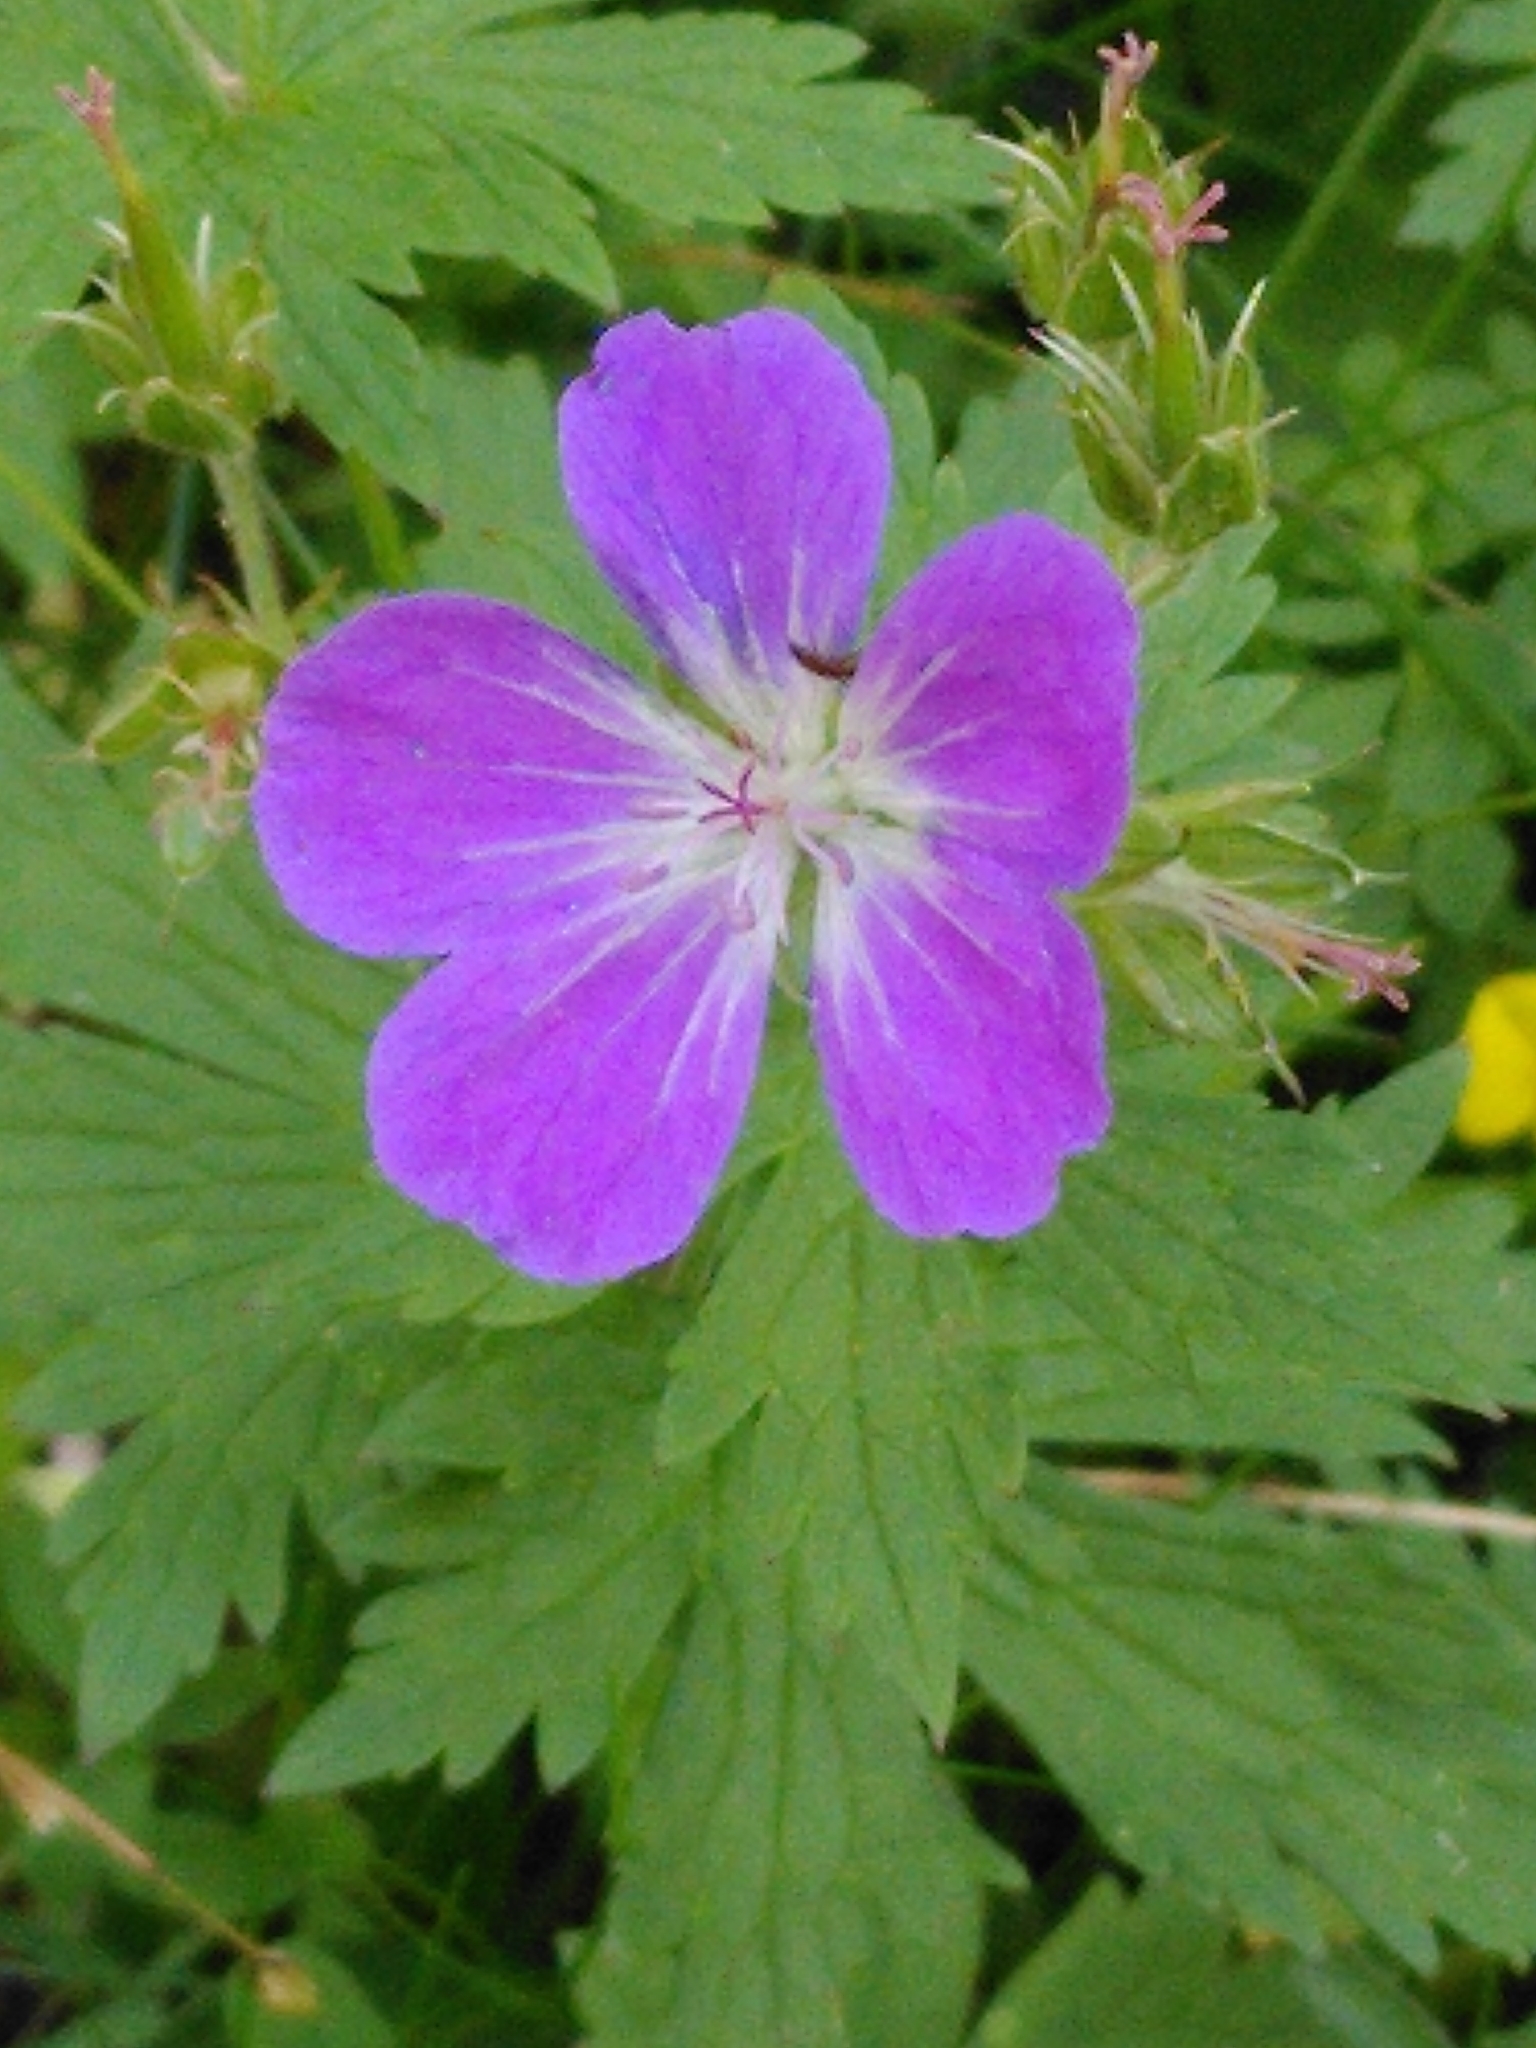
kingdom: Plantae
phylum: Tracheophyta
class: Magnoliopsida
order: Geraniales
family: Geraniaceae
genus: Geranium
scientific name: Geranium sylvaticum
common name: Wood crane's-bill
